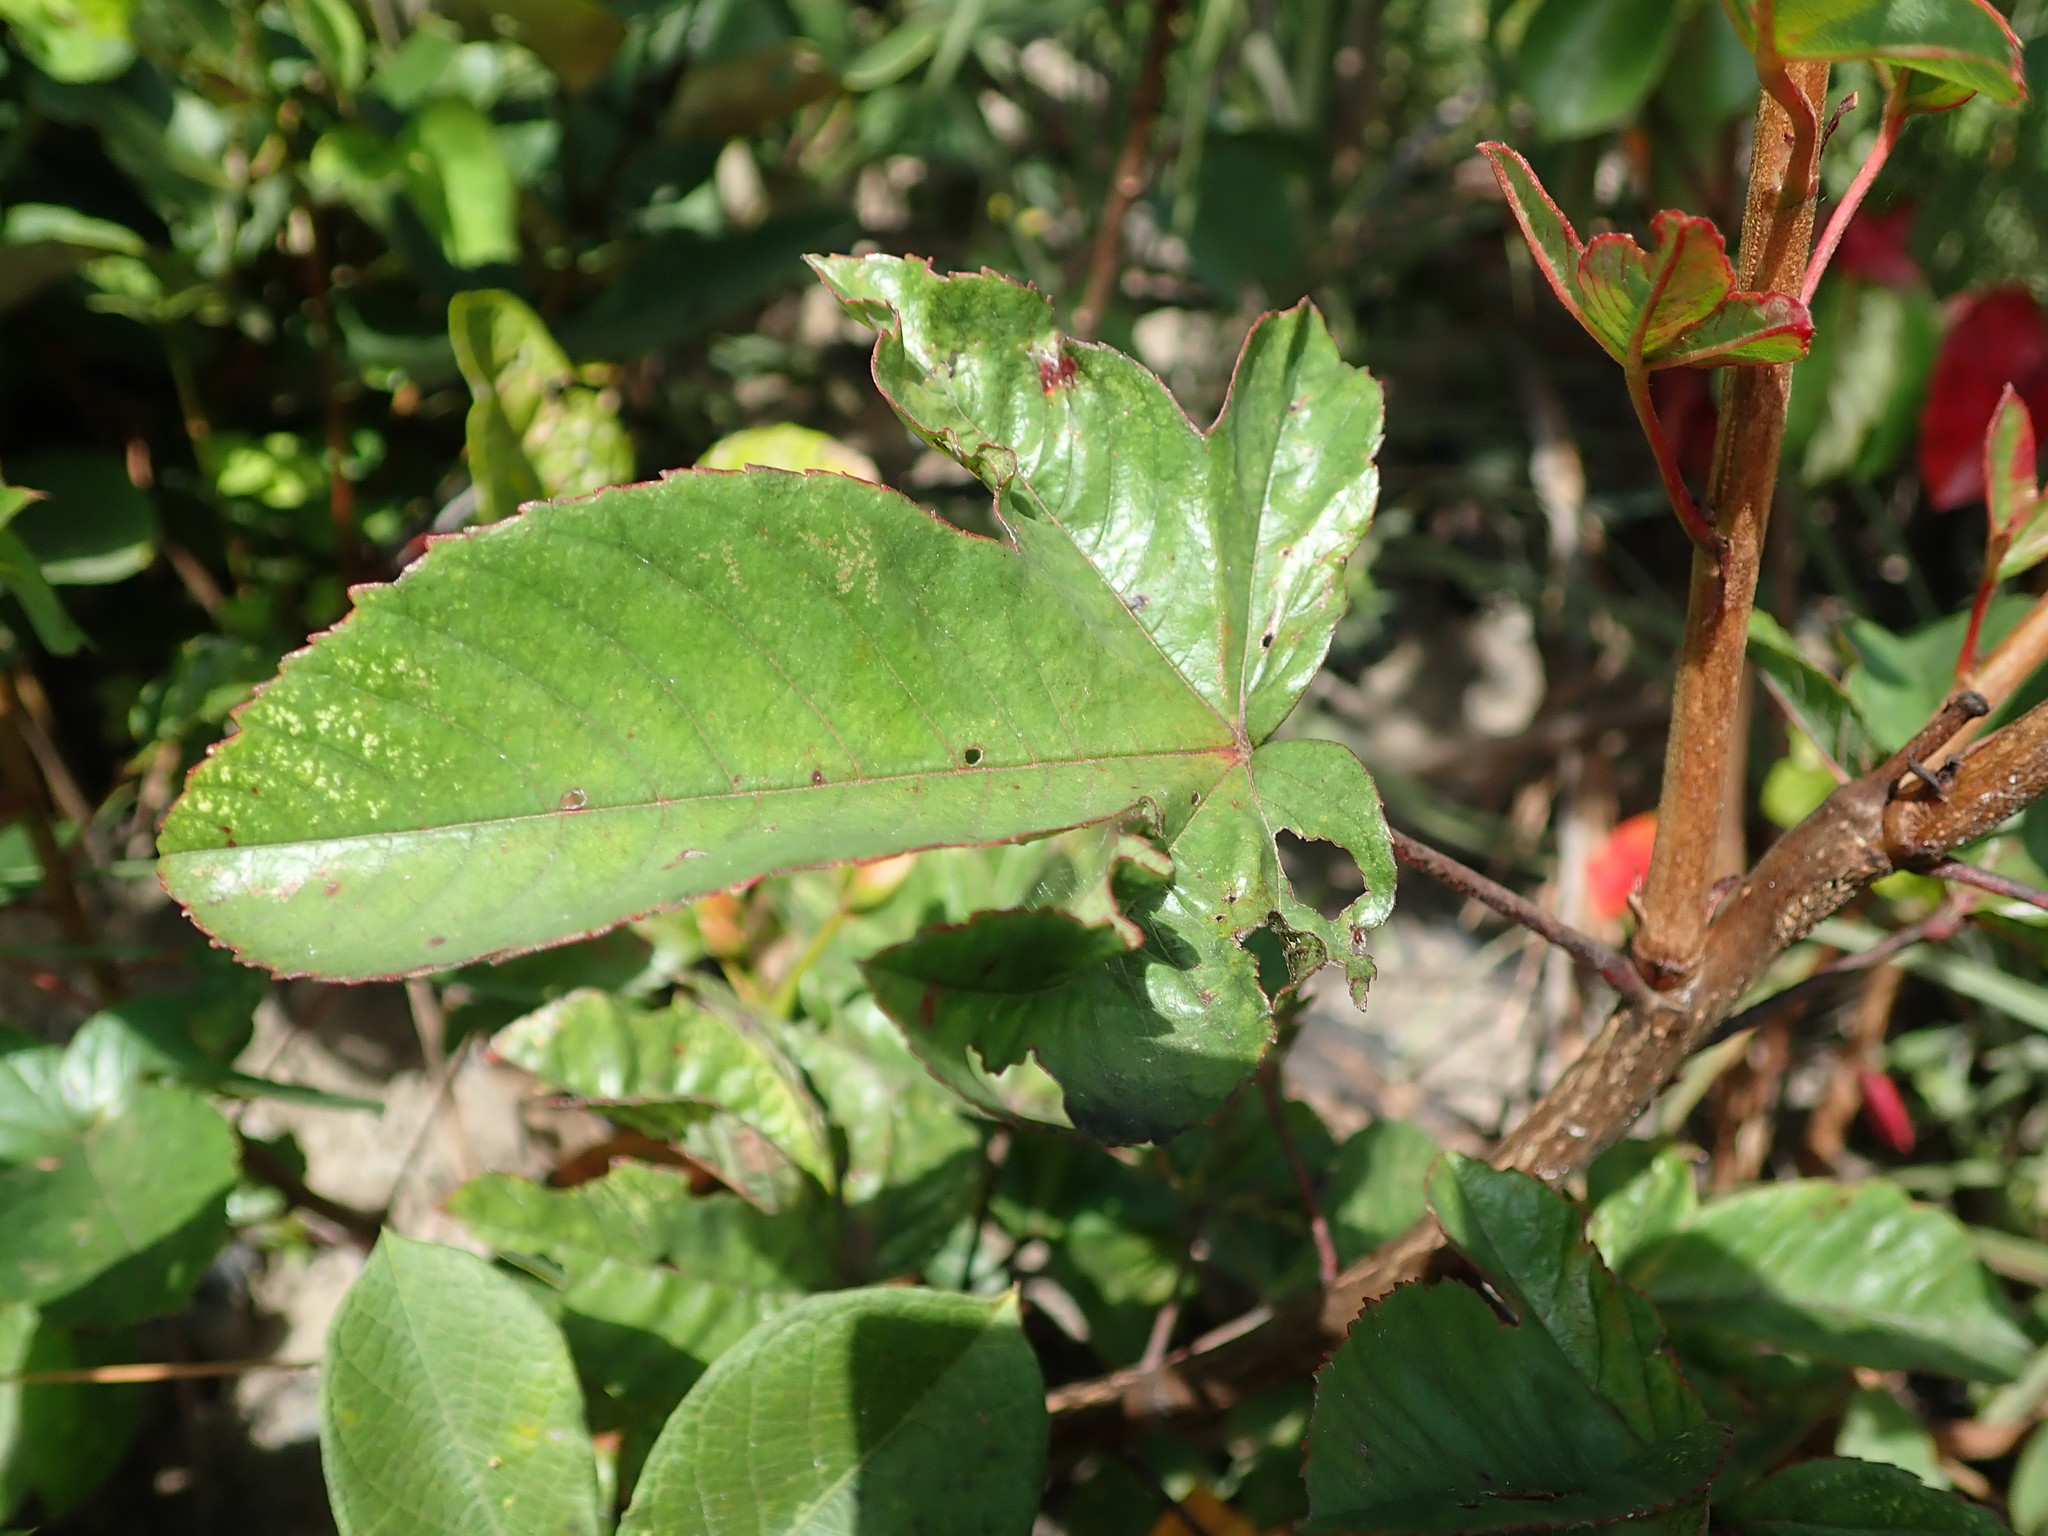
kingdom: Plantae
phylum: Tracheophyta
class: Magnoliopsida
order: Malvales
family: Cochlospermaceae
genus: Cochlospermum
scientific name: Cochlospermum regium
